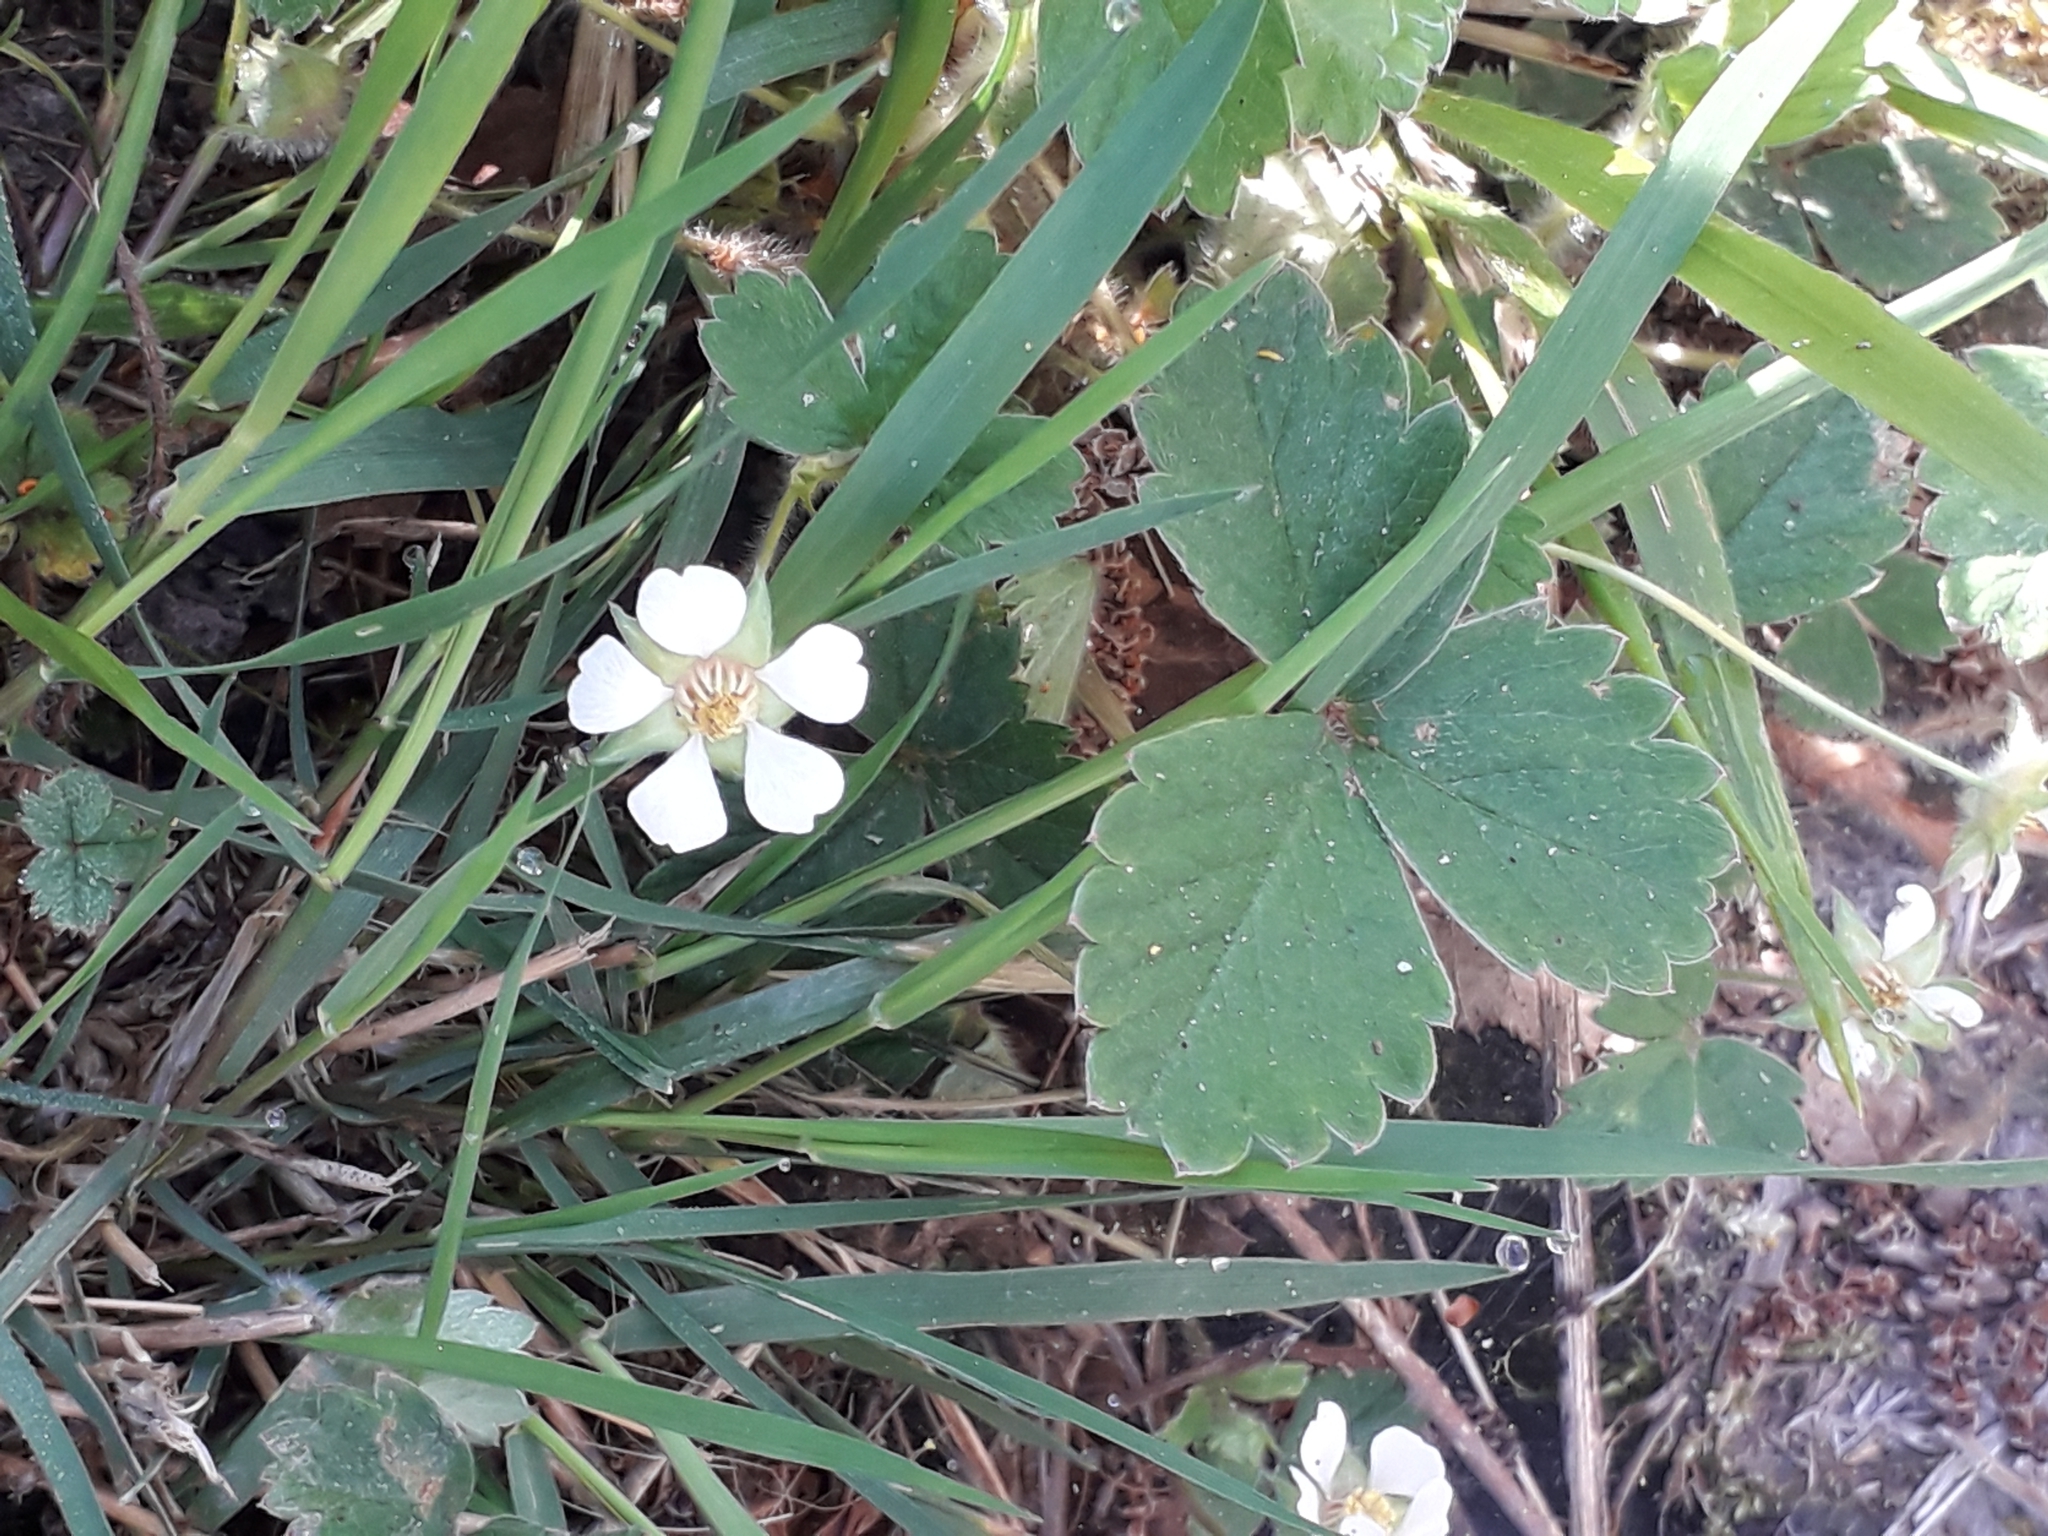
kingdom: Plantae
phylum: Tracheophyta
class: Magnoliopsida
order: Rosales
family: Rosaceae
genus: Potentilla
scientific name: Potentilla sterilis
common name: Barren strawberry
